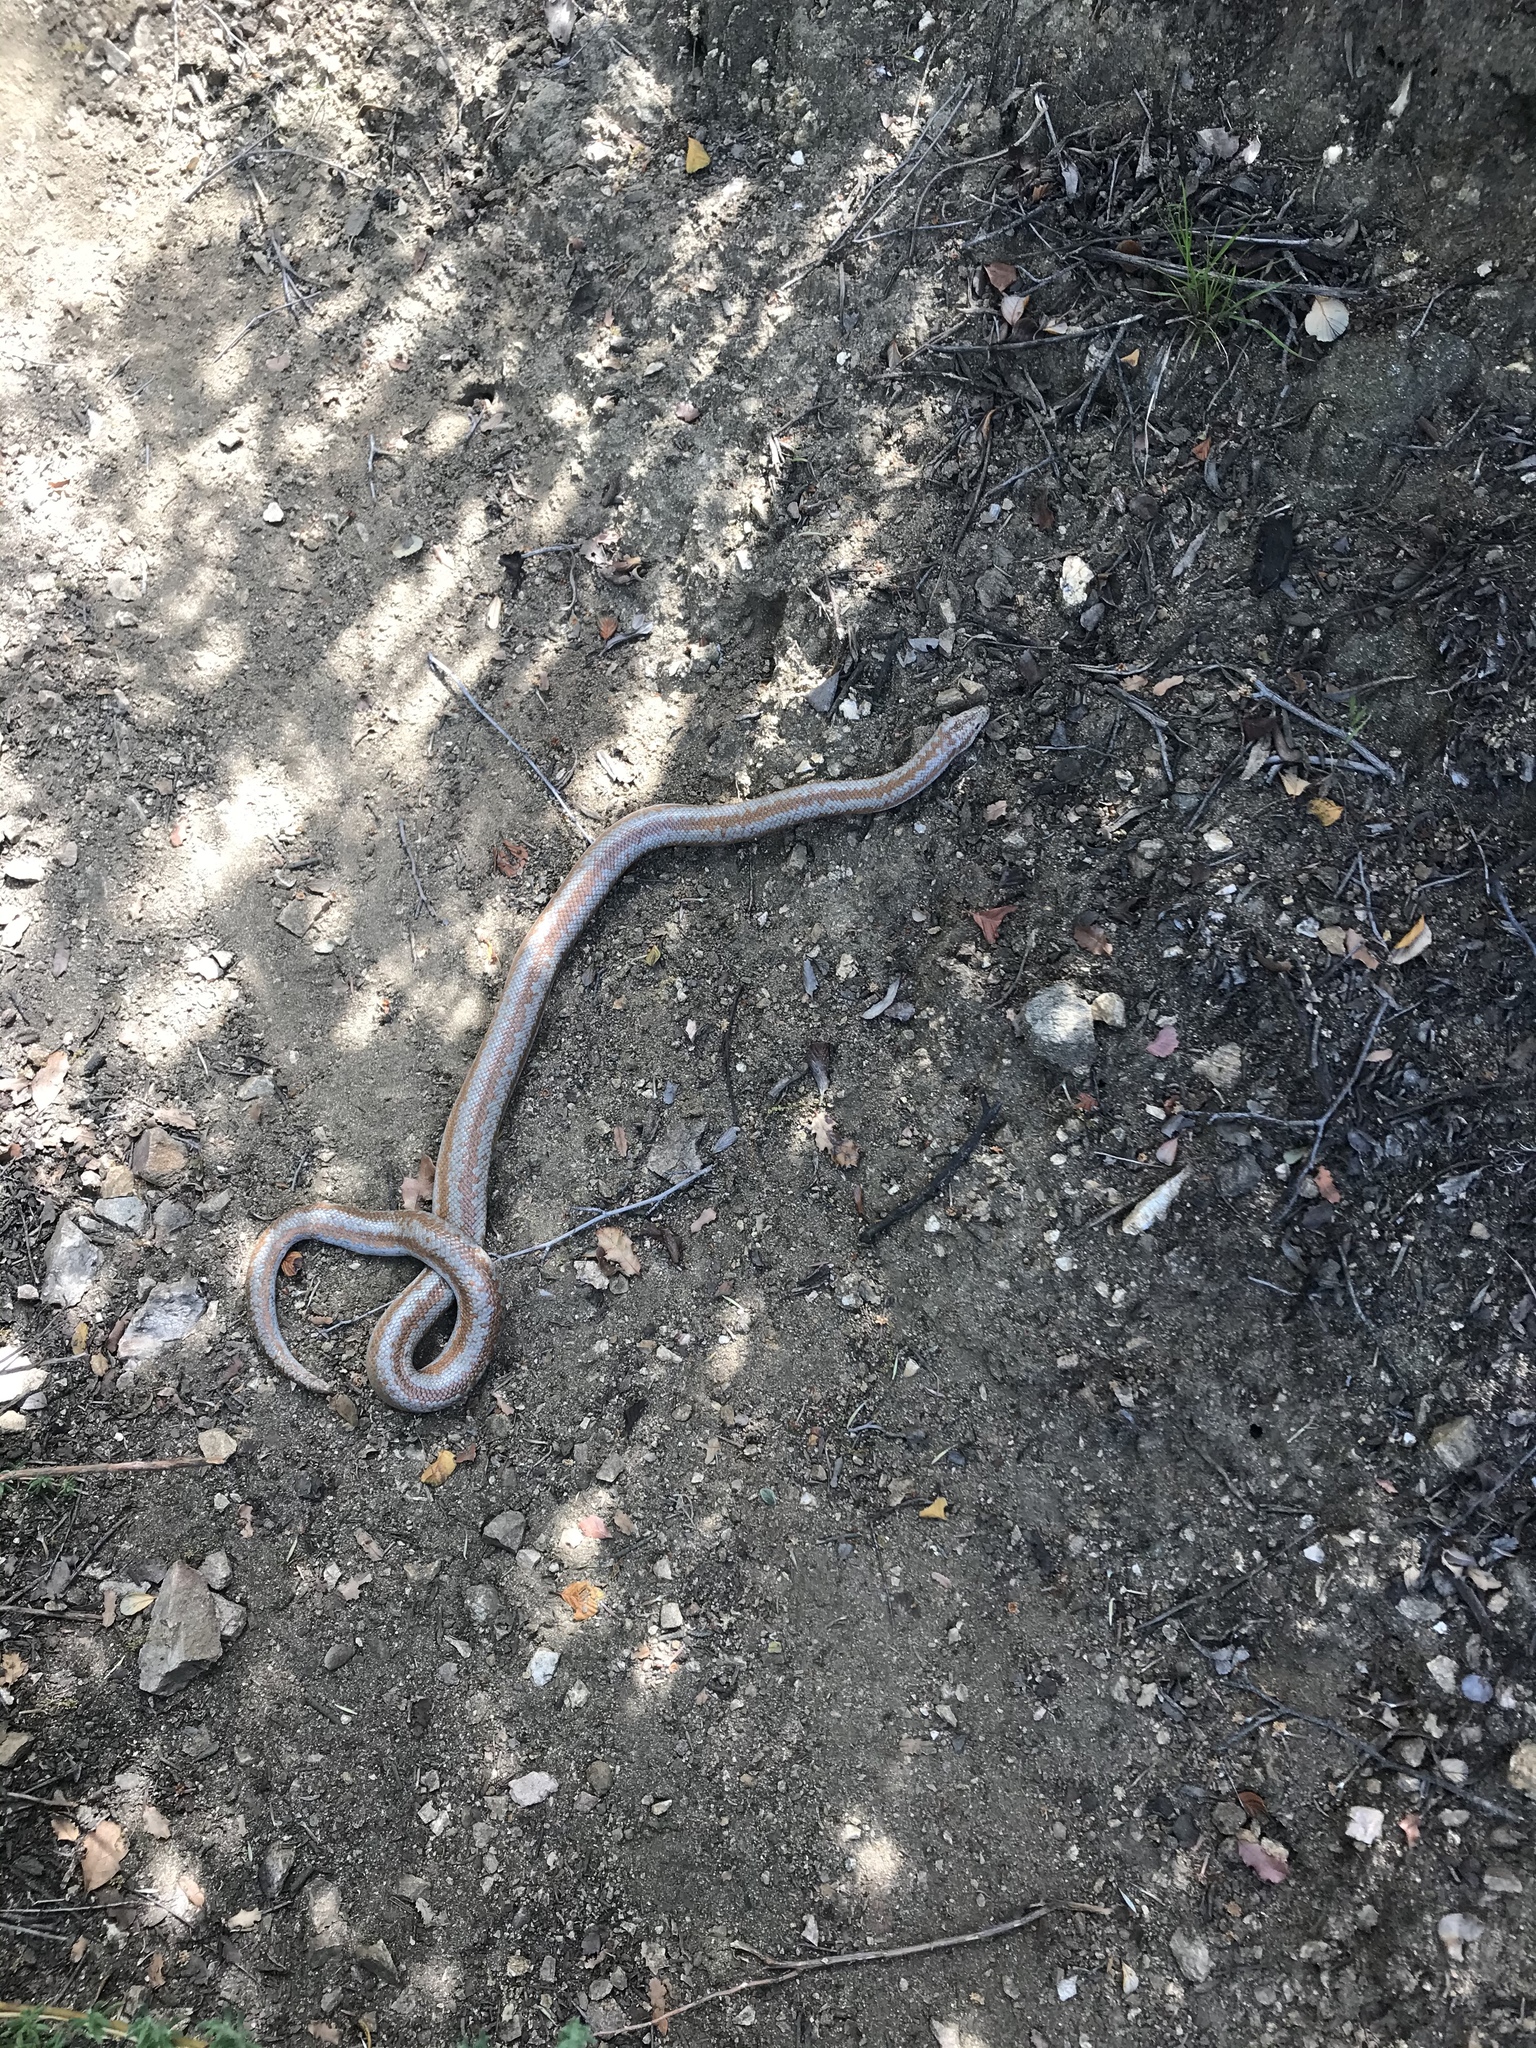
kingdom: Animalia
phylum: Chordata
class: Squamata
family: Boidae
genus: Lichanura
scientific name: Lichanura orcutti
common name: Northern three-lined boa
